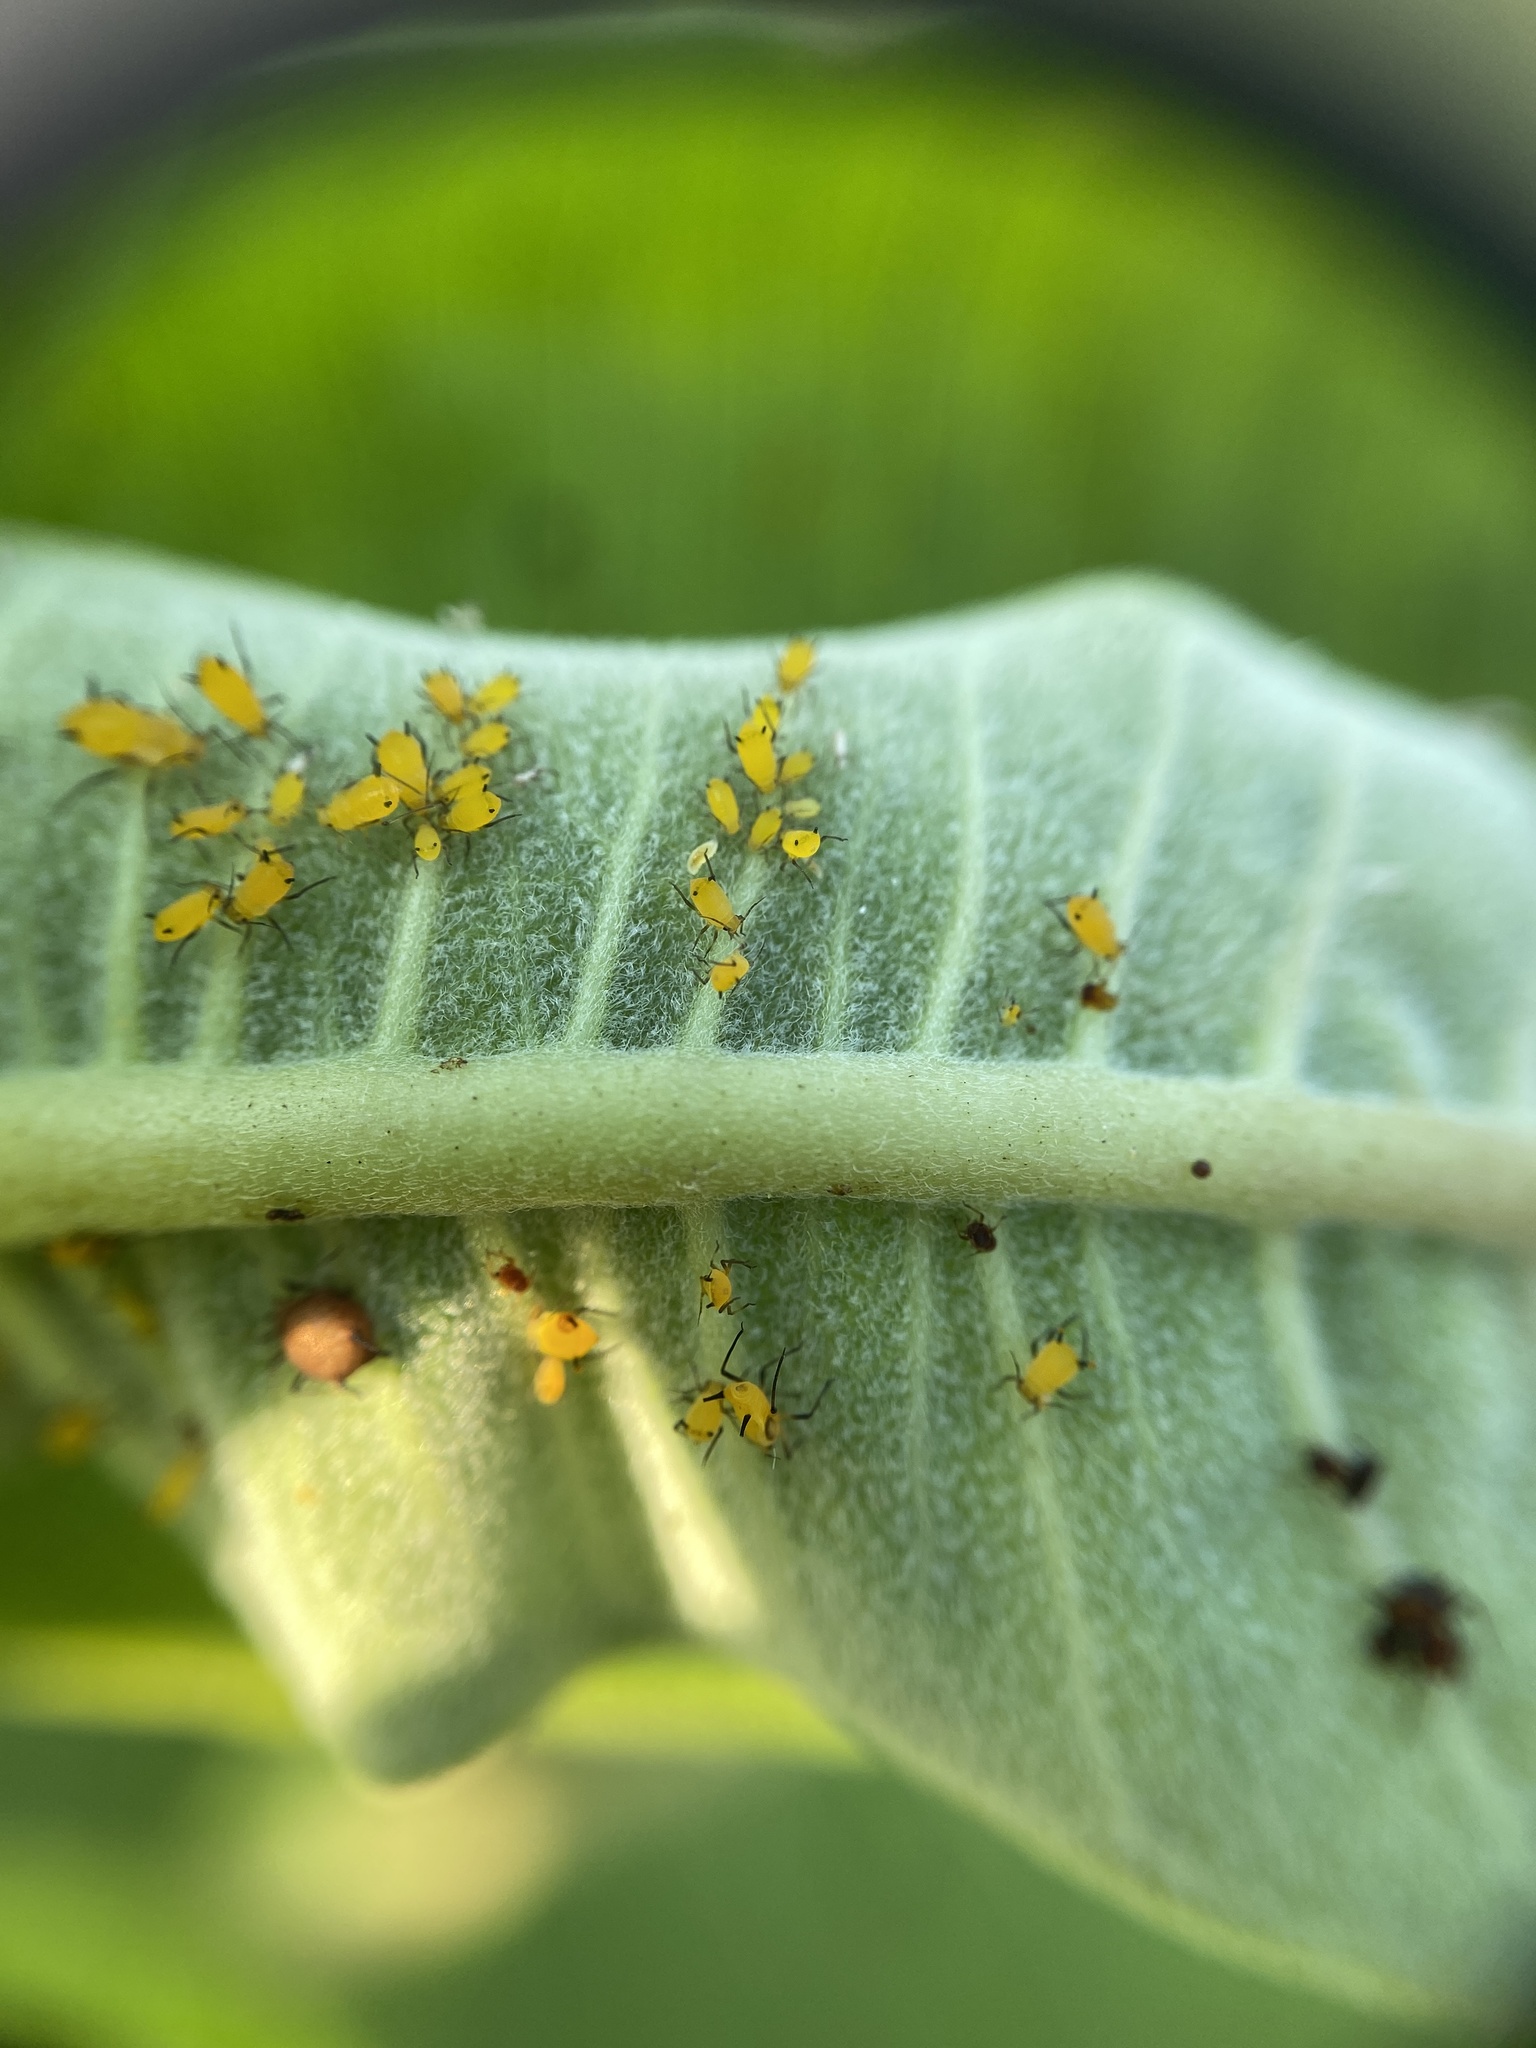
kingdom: Animalia
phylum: Arthropoda
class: Insecta
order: Hemiptera
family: Aphididae
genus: Aphis
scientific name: Aphis nerii
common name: Oleander aphid
